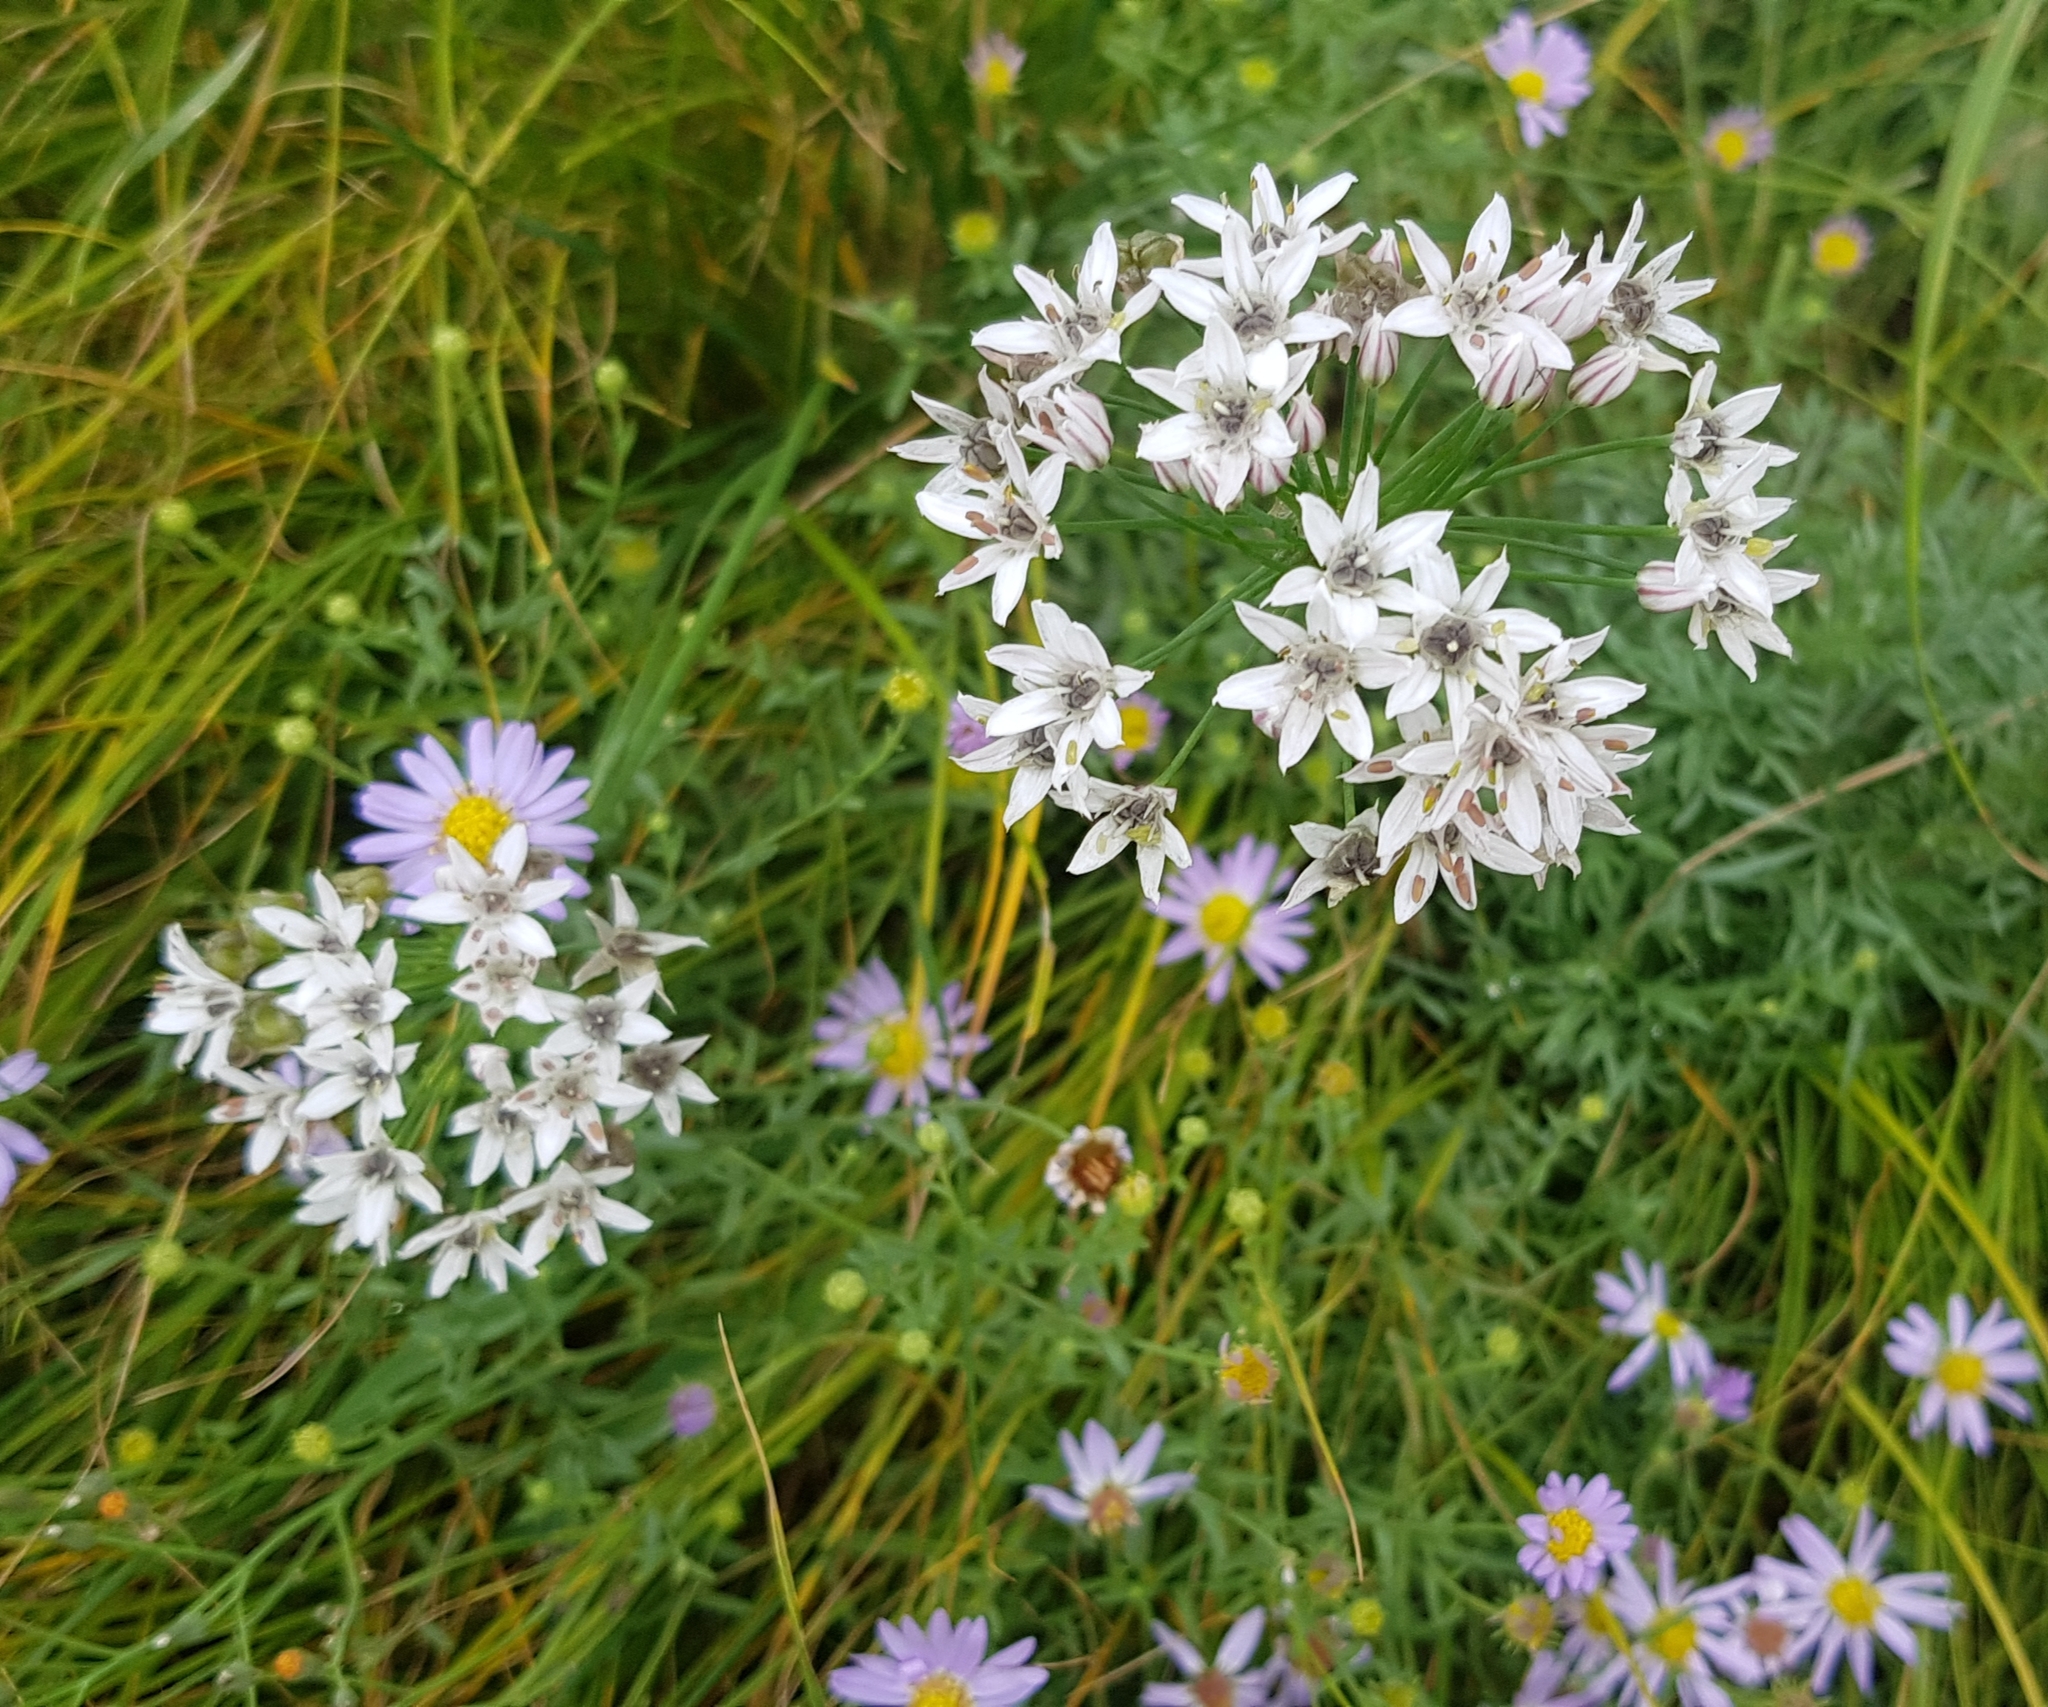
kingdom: Plantae
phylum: Tracheophyta
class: Liliopsida
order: Asparagales
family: Amaryllidaceae
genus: Allium
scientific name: Allium ramosum
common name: Fragrant garlic
